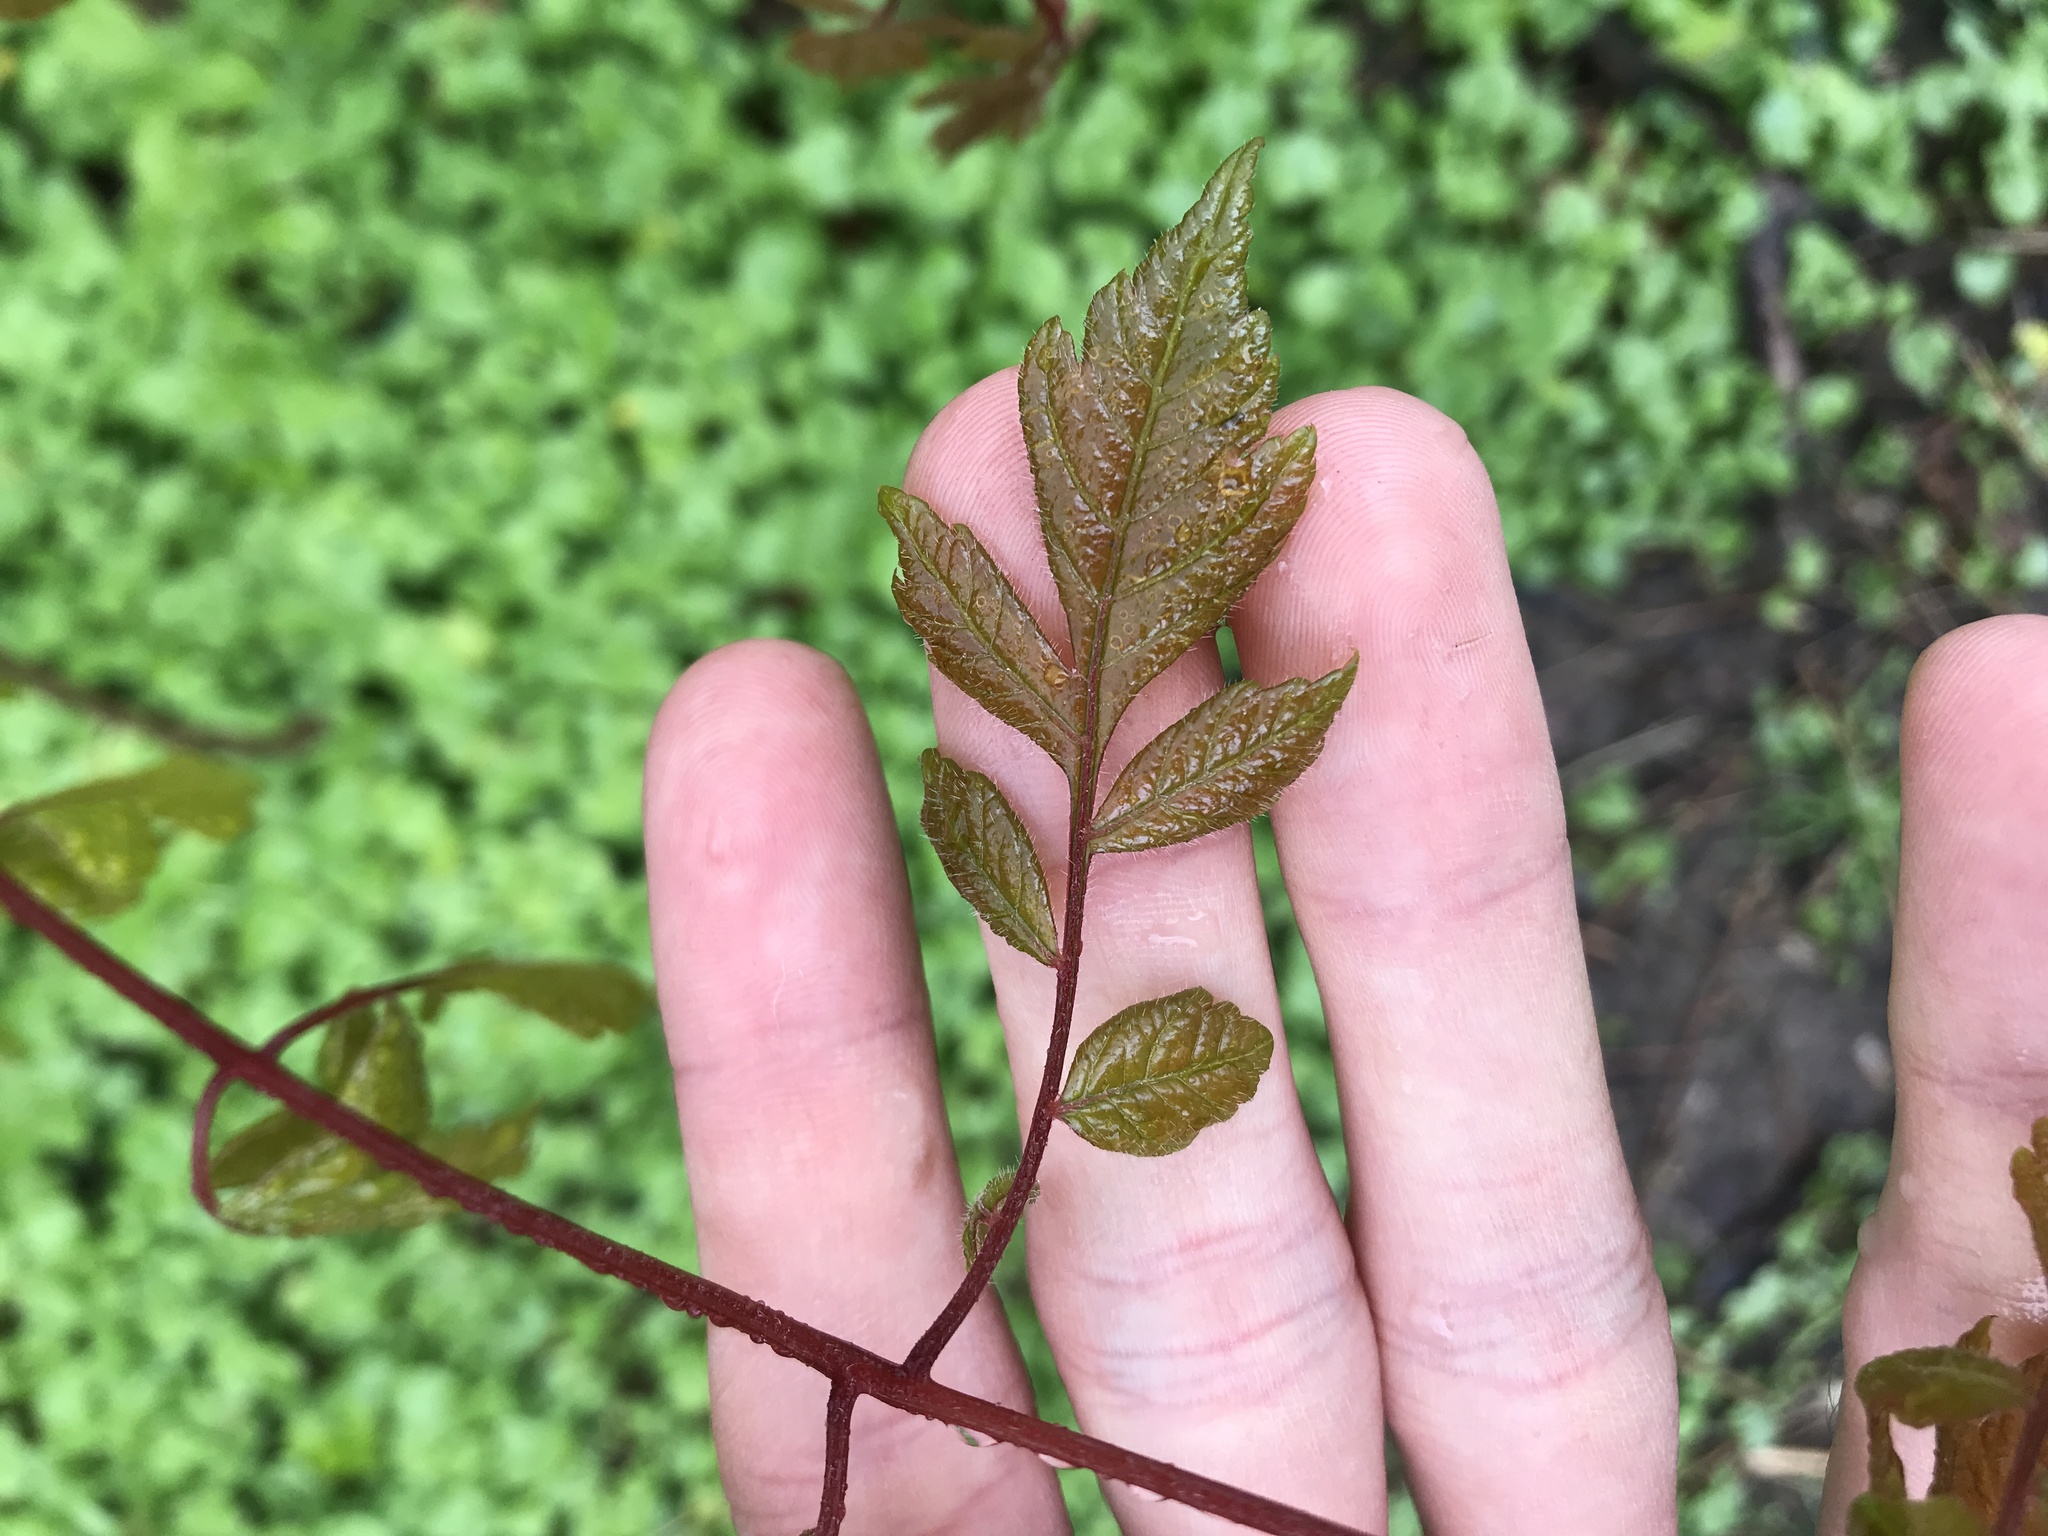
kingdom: Plantae
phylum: Tracheophyta
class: Magnoliopsida
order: Sapindales
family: Sapindaceae
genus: Koelreuteria
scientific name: Koelreuteria paniculata
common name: Pride-of-india
